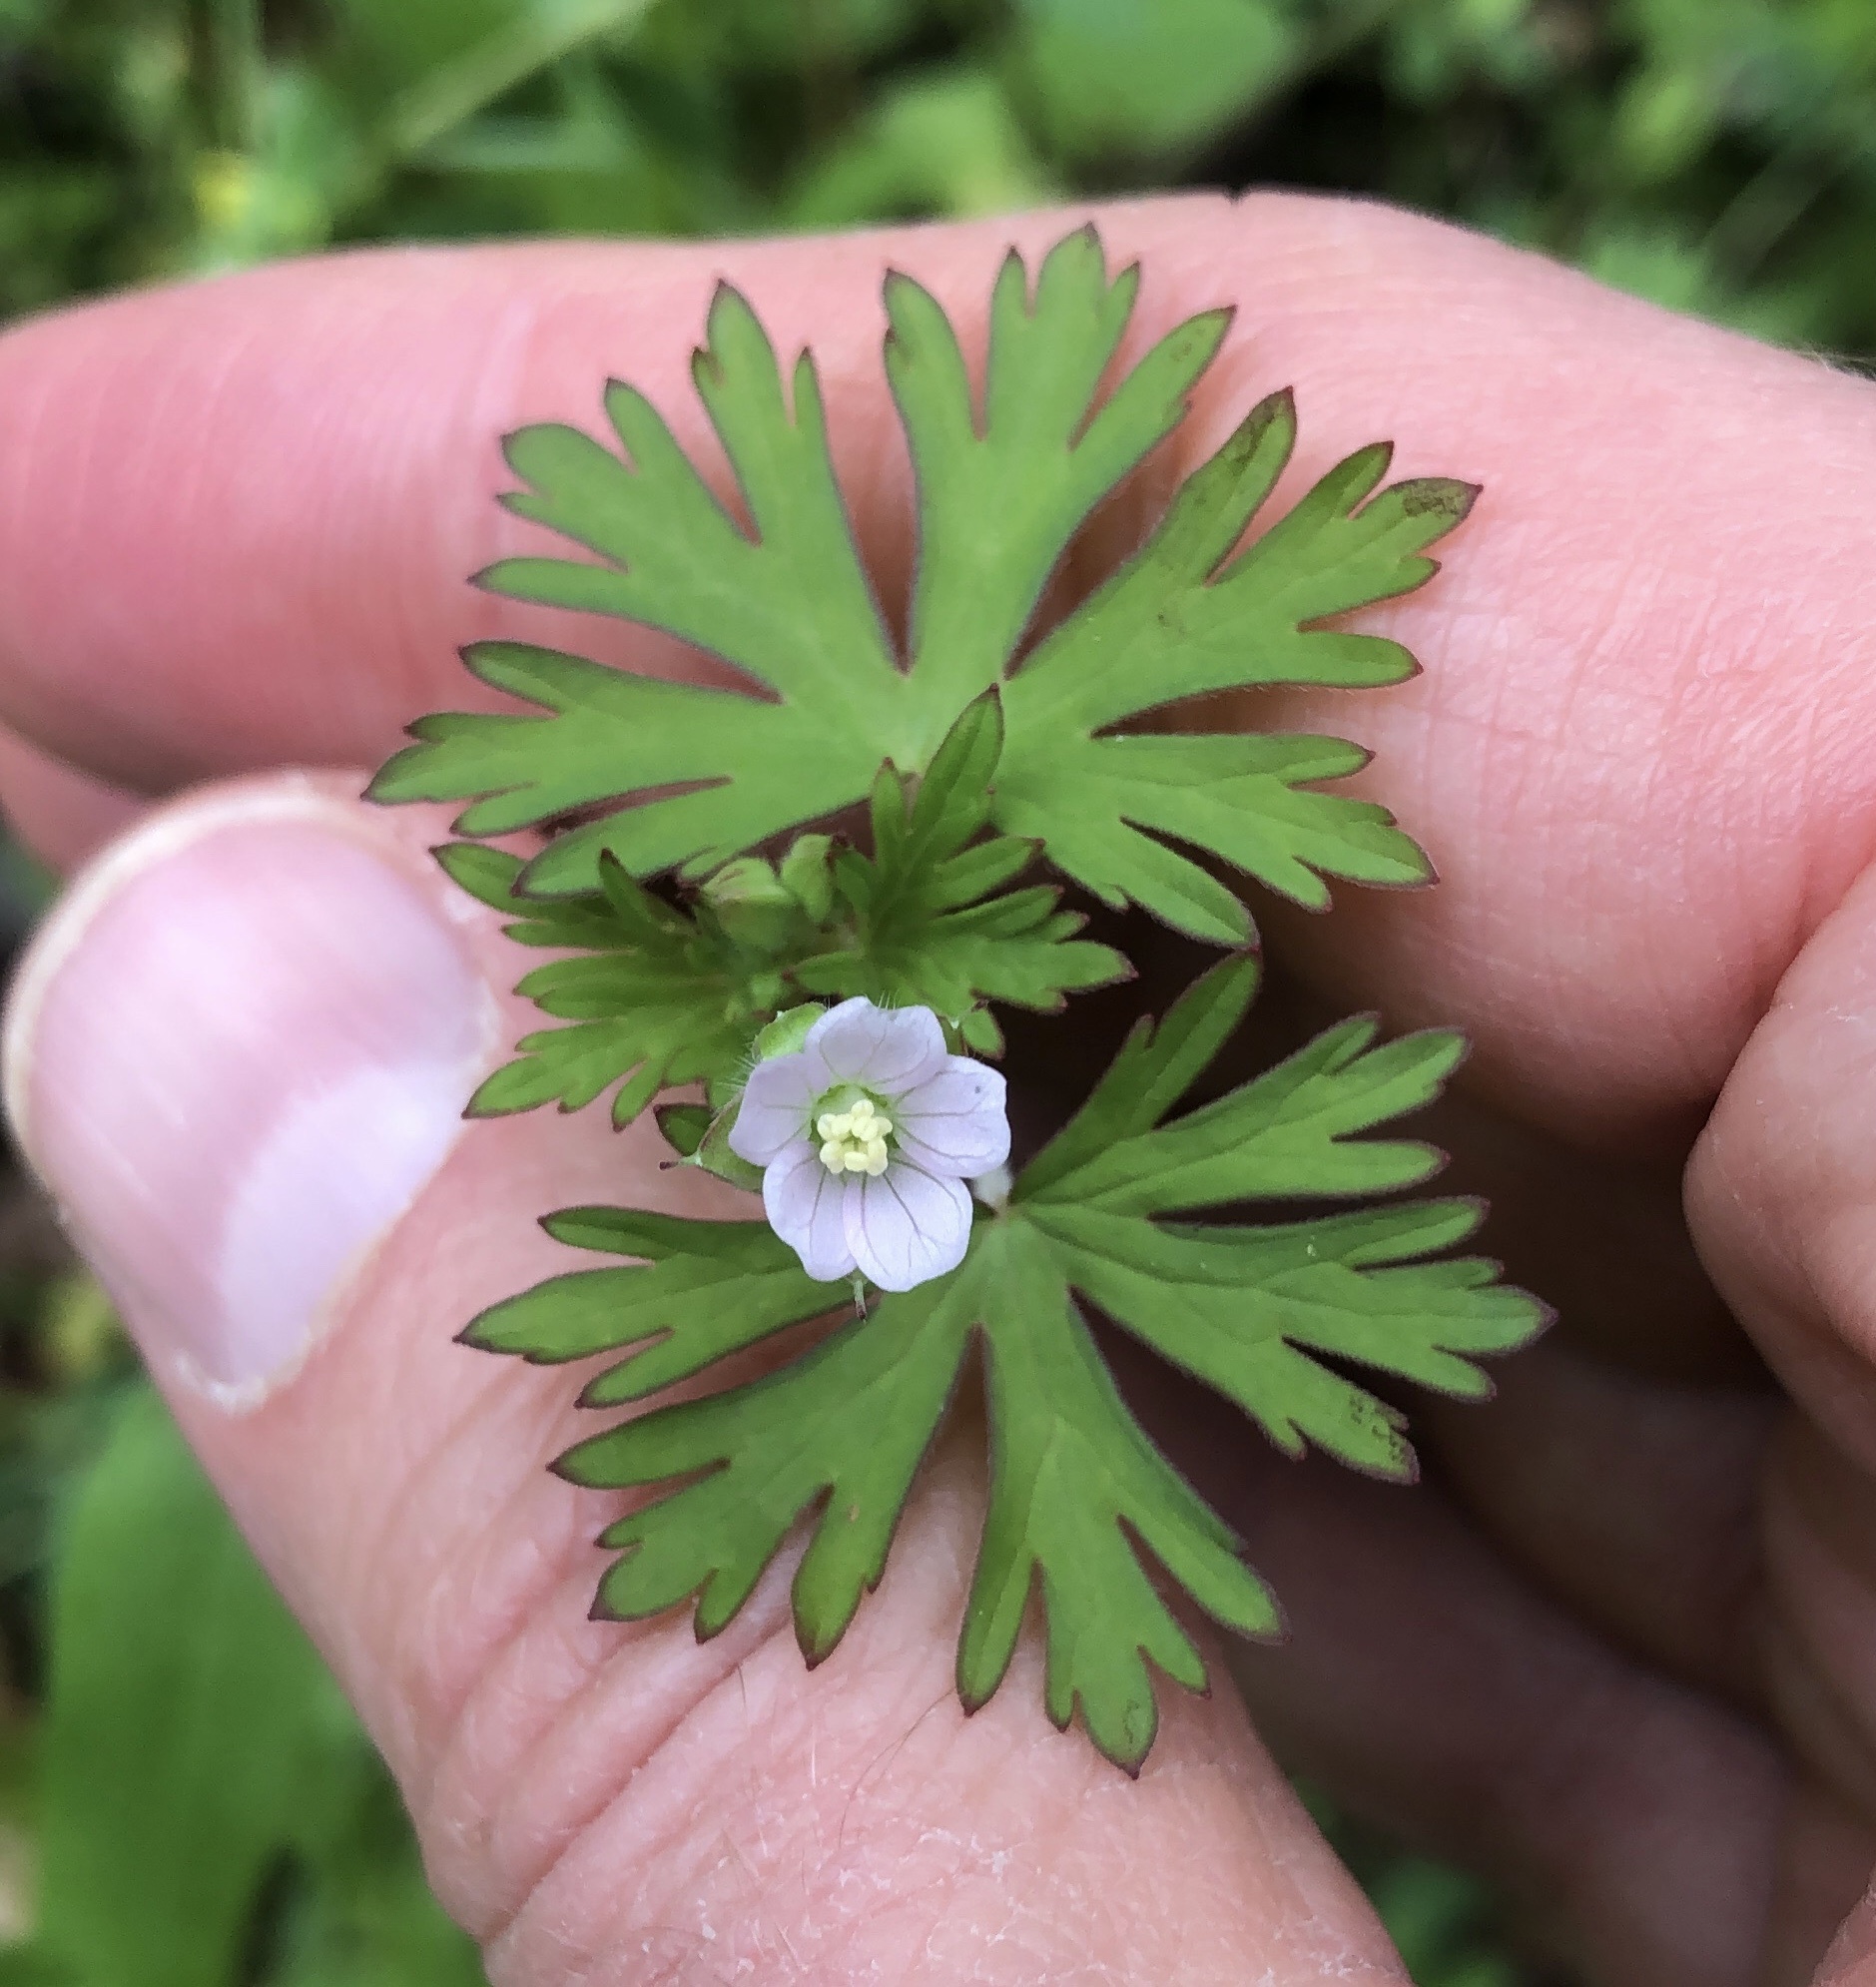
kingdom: Plantae
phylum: Tracheophyta
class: Magnoliopsida
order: Geraniales
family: Geraniaceae
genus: Geranium
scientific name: Geranium carolinianum
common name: Carolina crane's-bill
